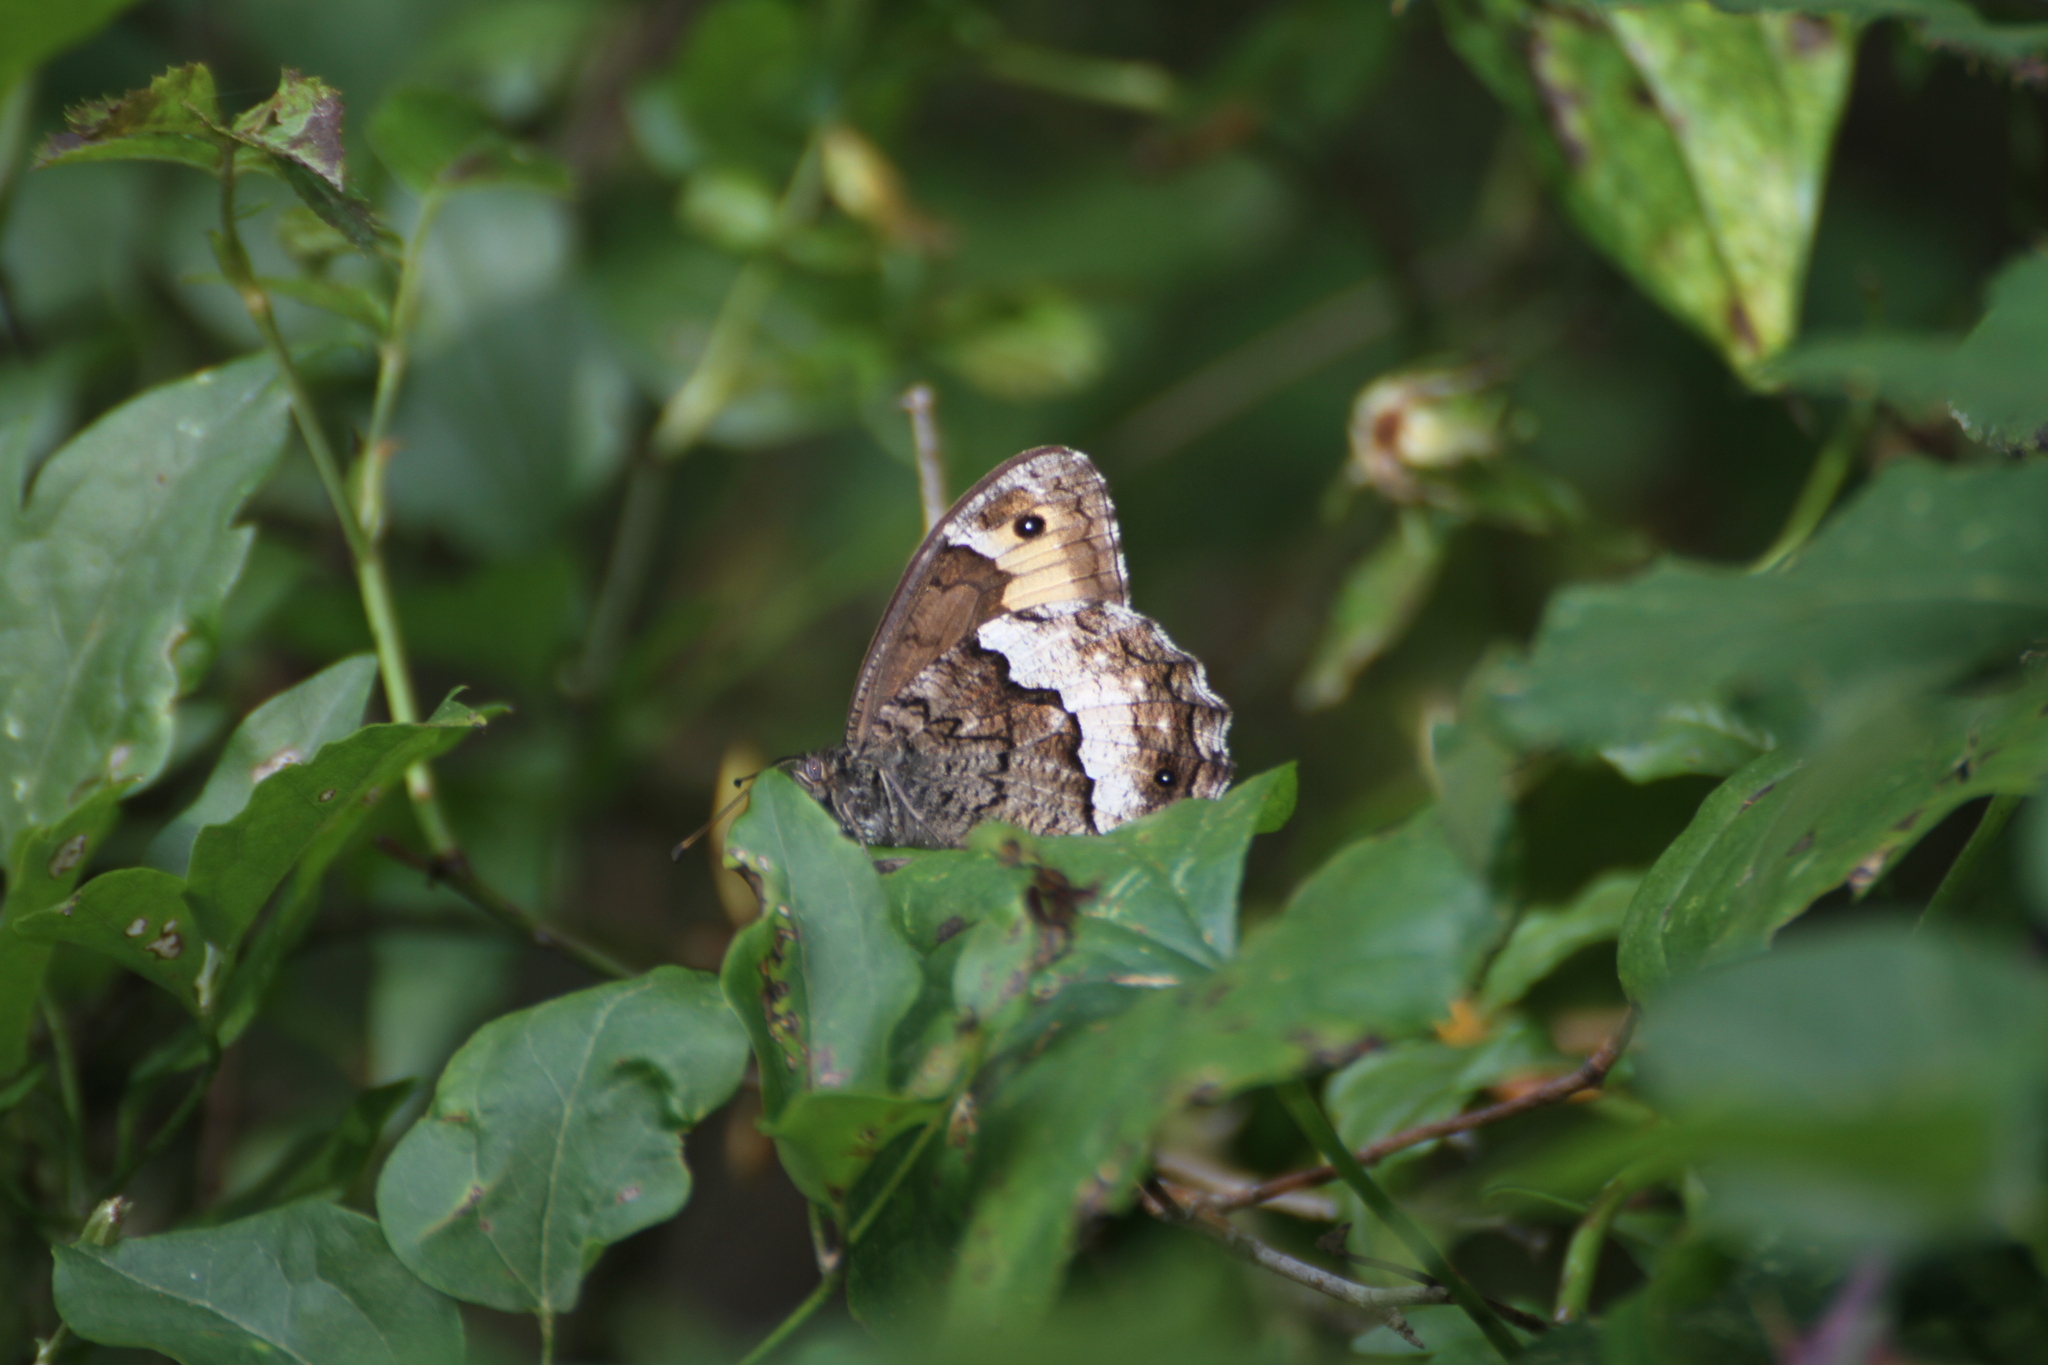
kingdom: Animalia
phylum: Arthropoda
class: Insecta
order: Lepidoptera
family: Nymphalidae
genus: Hipparchia
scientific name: Hipparchia fagi
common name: Woodland grayling
